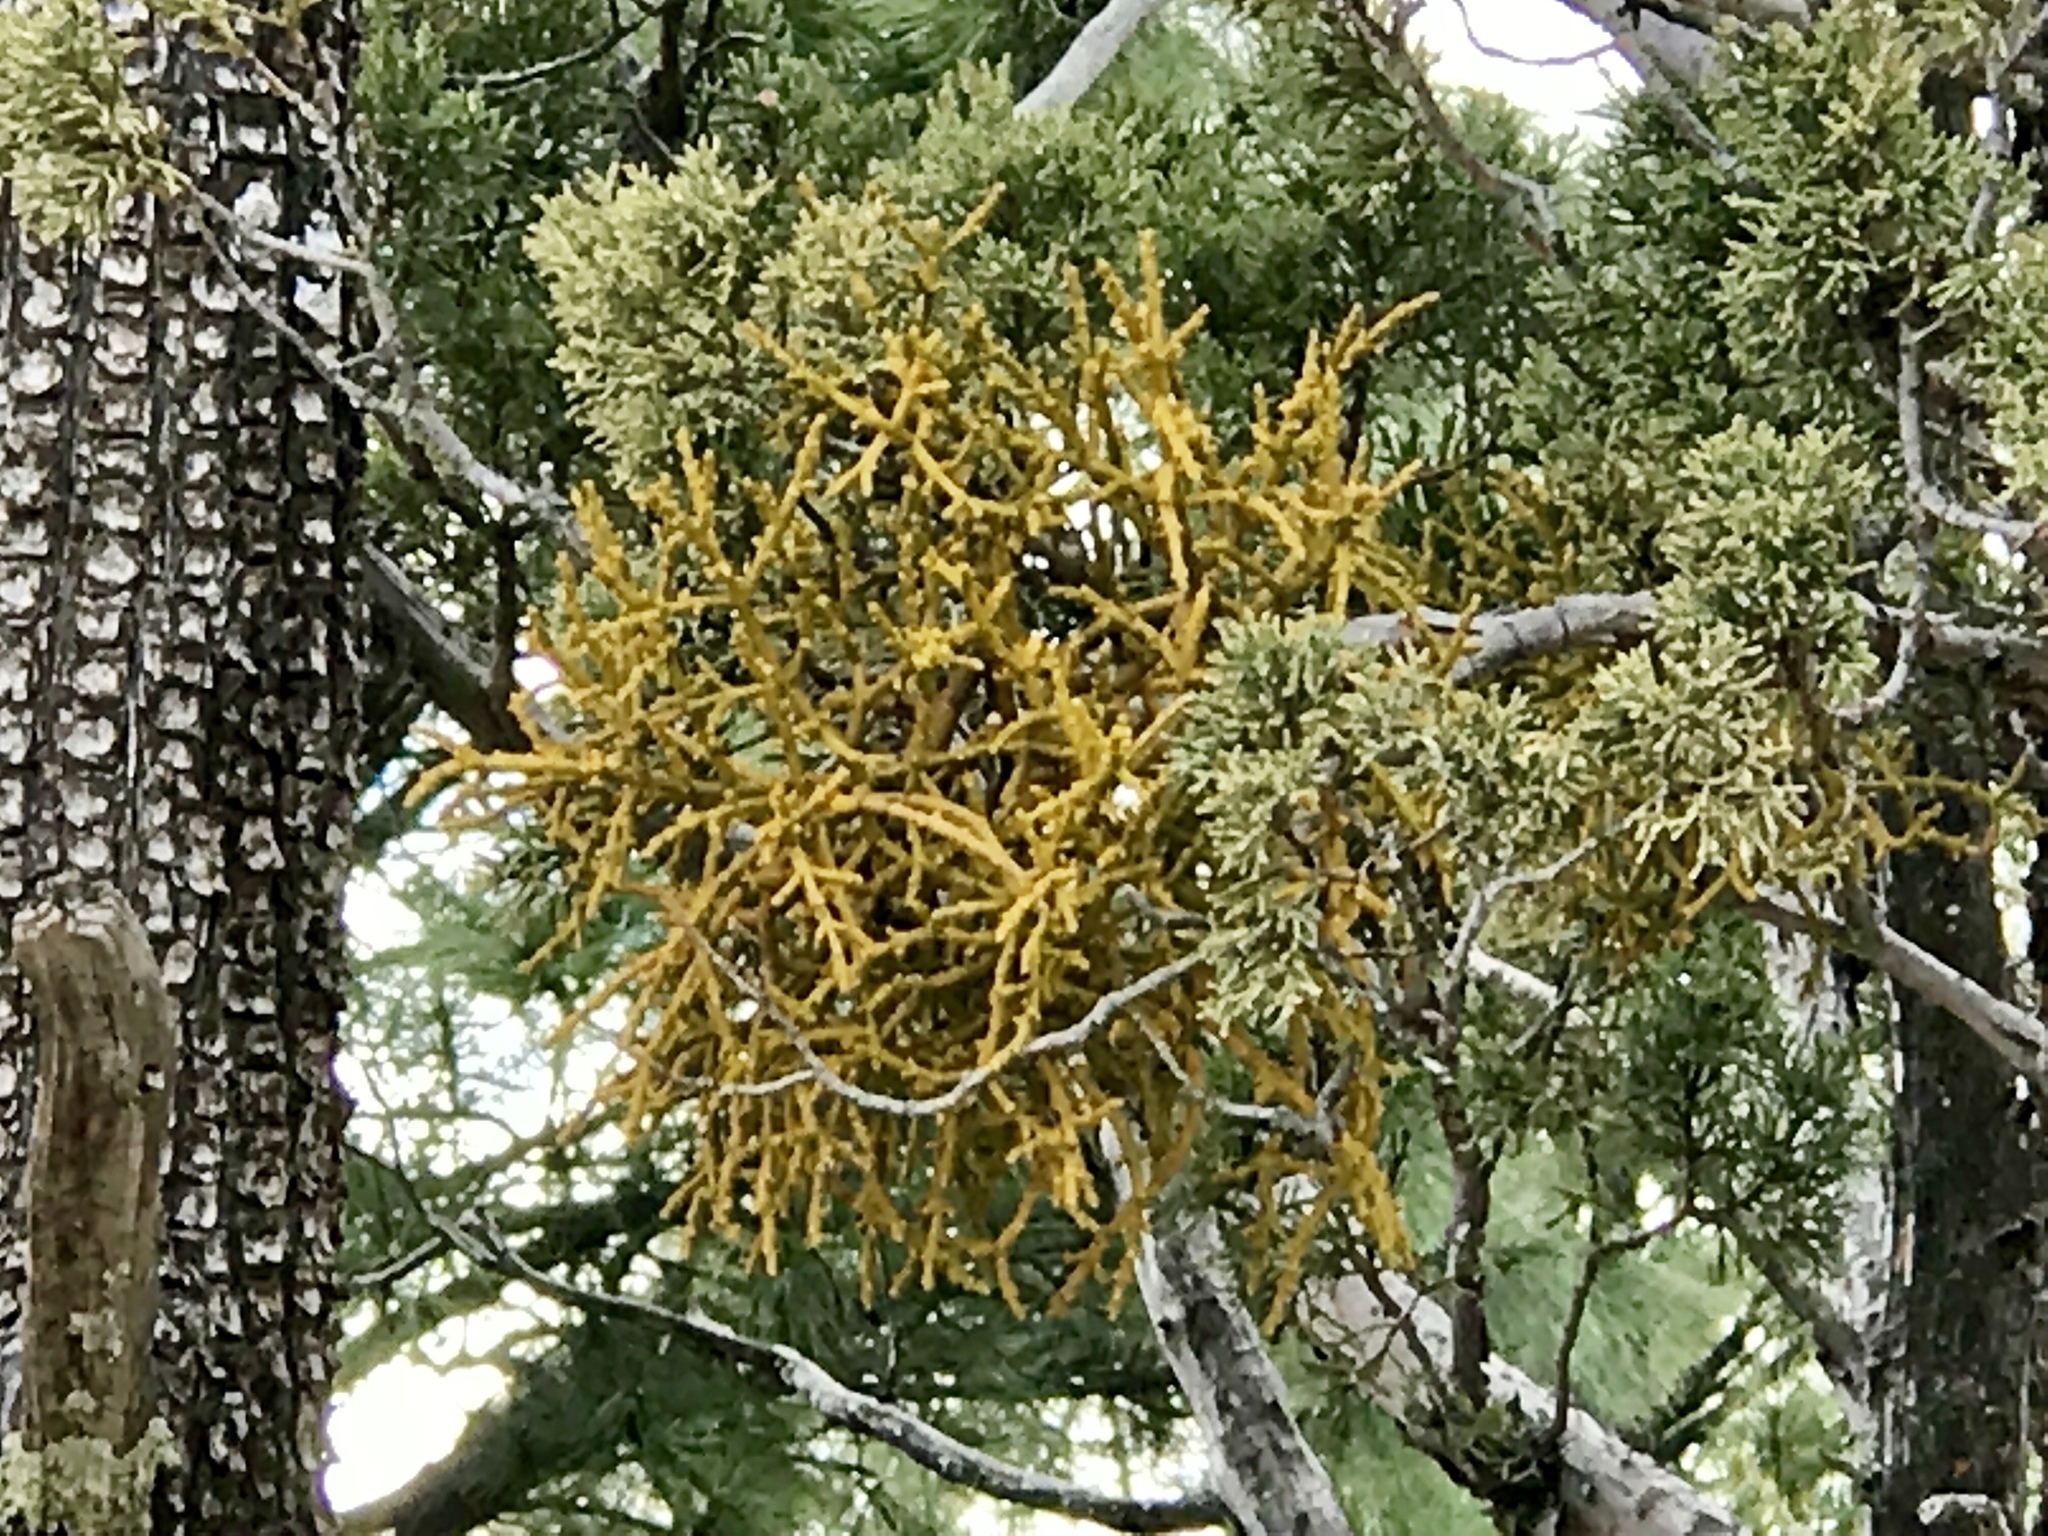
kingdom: Plantae
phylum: Tracheophyta
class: Magnoliopsida
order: Santalales
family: Viscaceae
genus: Phoradendron
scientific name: Phoradendron juniperinum
